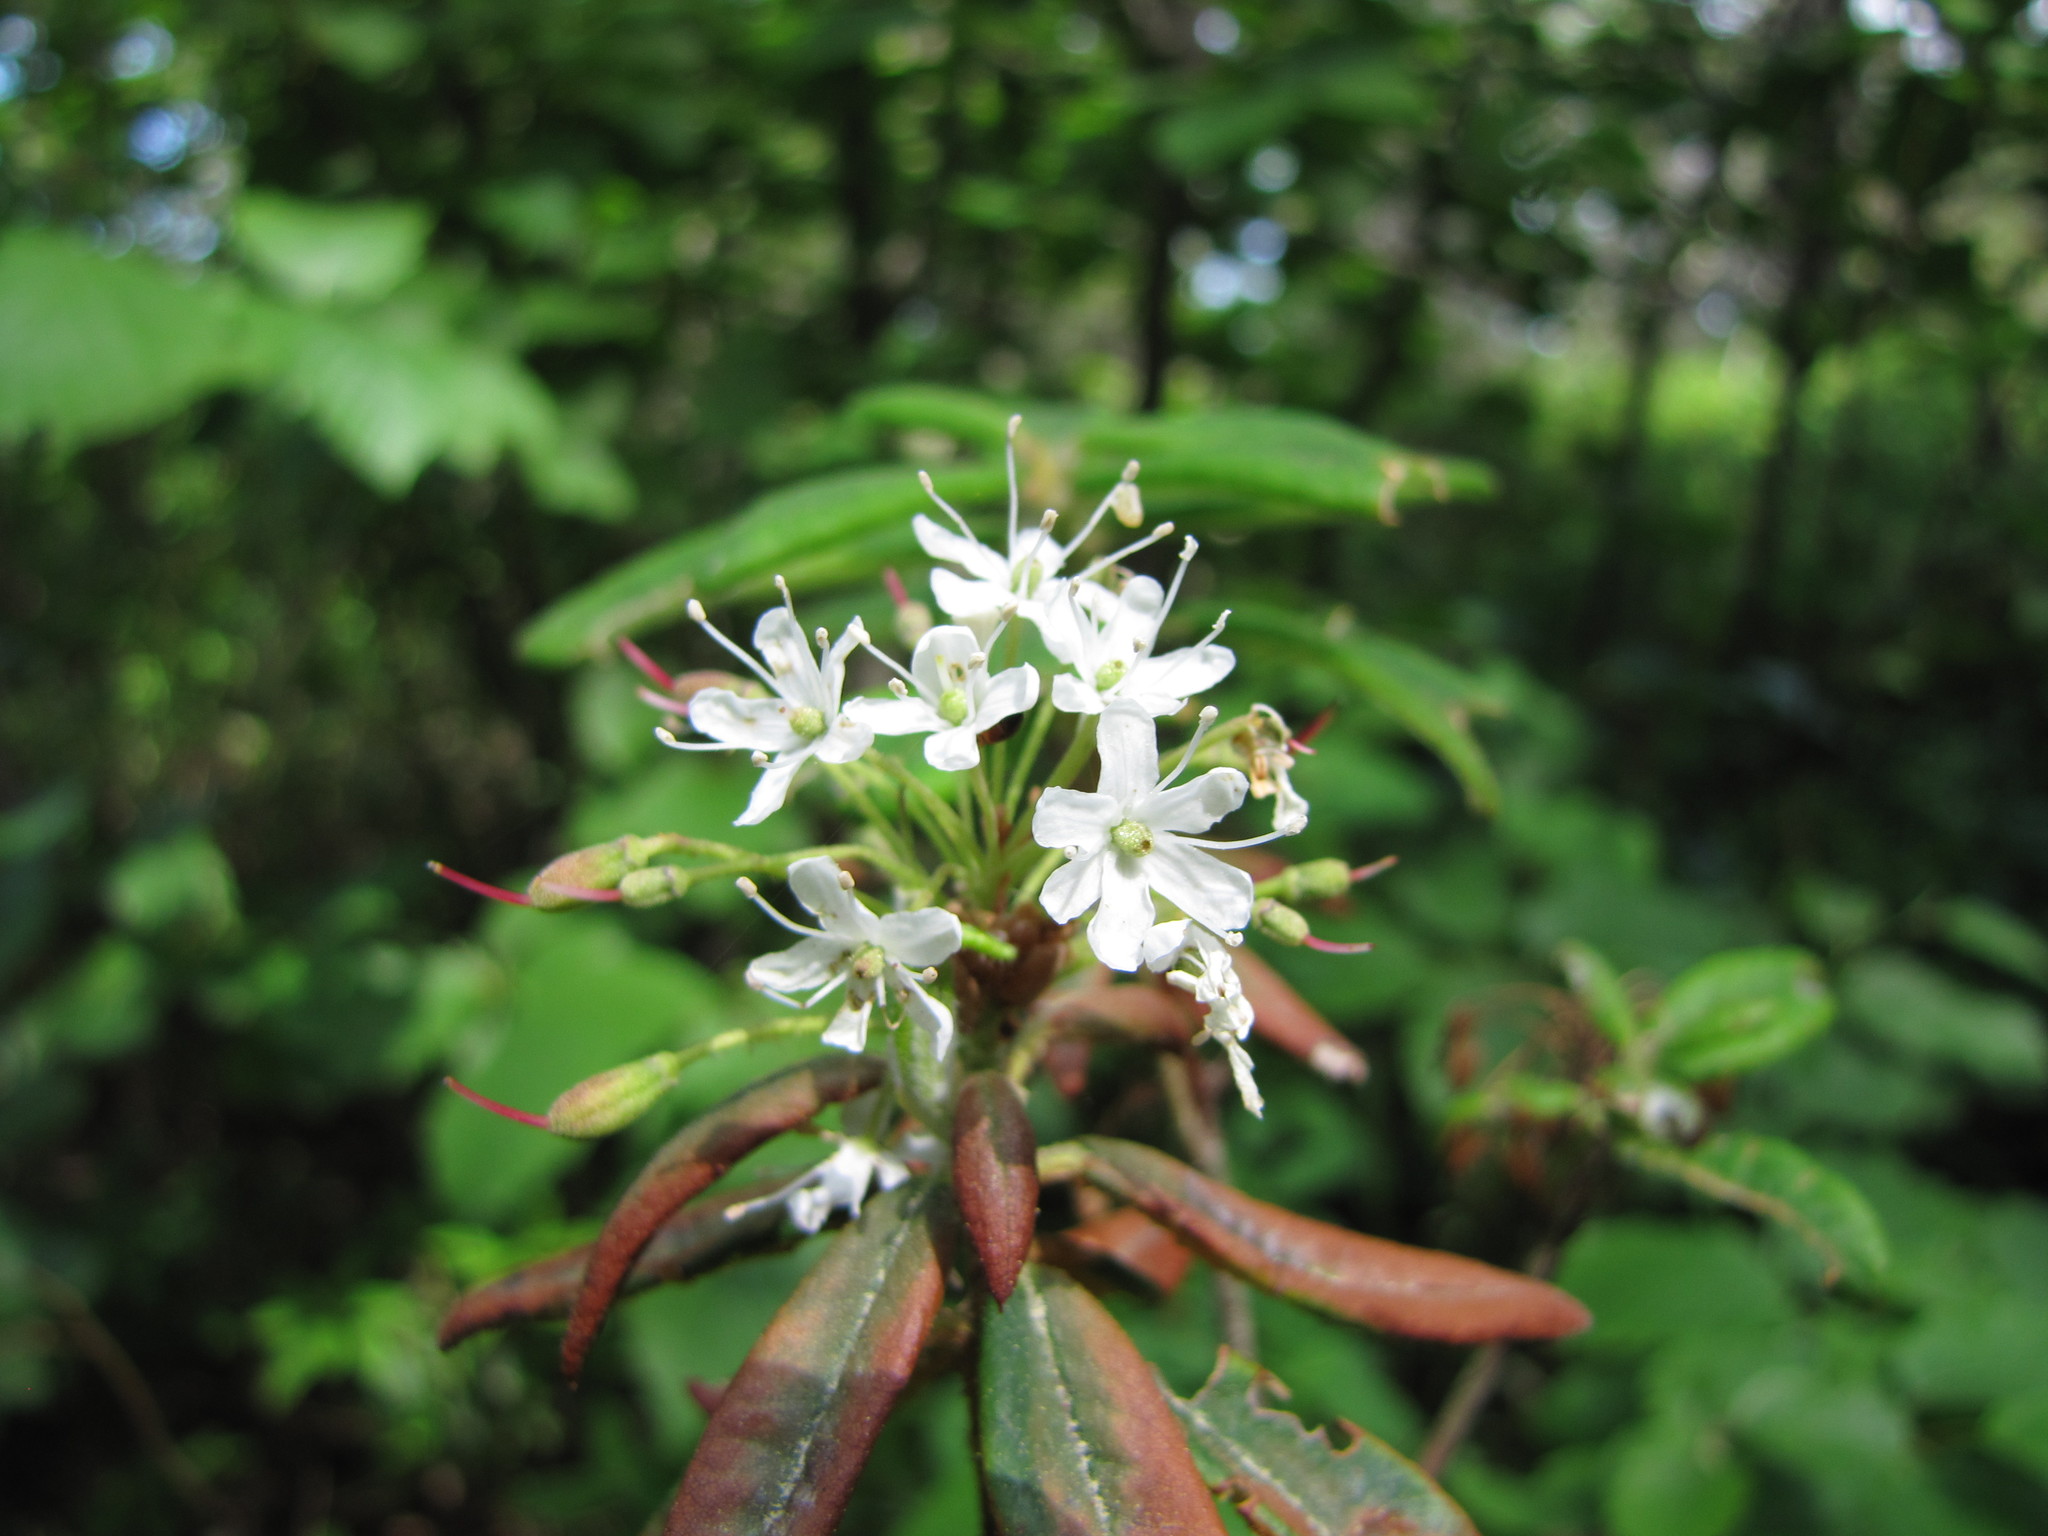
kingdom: Plantae
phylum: Tracheophyta
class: Magnoliopsida
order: Ericales
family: Ericaceae
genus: Rhododendron
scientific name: Rhododendron groenlandicum
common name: Bog labrador tea
